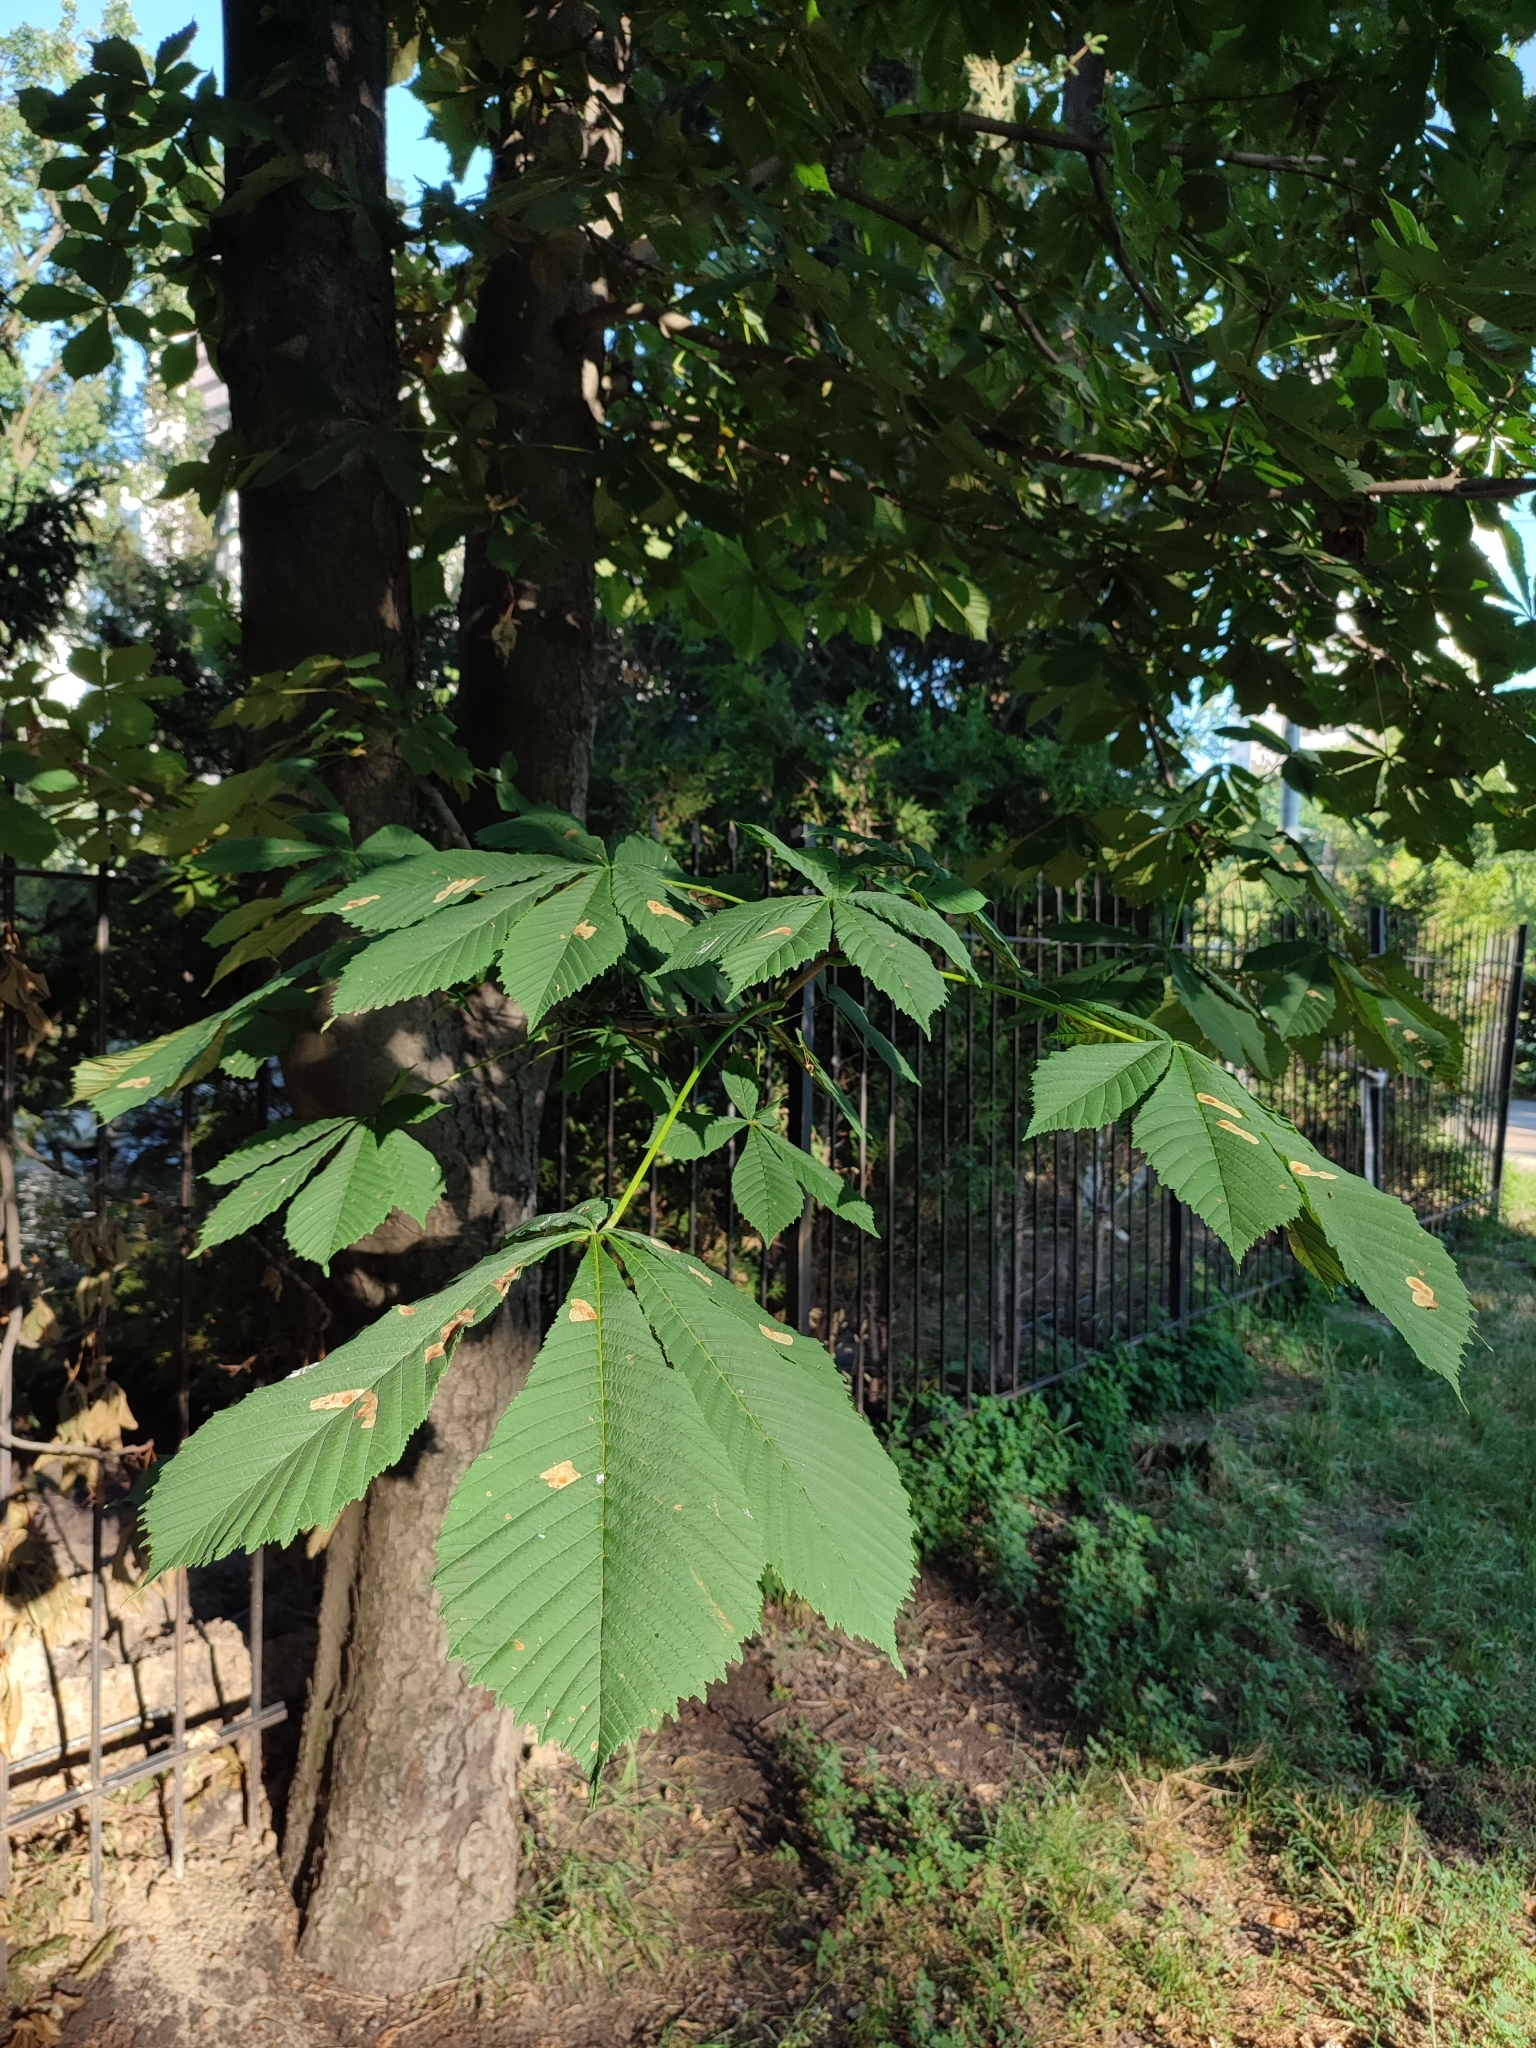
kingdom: Animalia
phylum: Arthropoda
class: Insecta
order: Lepidoptera
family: Gracillariidae
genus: Cameraria
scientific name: Cameraria ohridella
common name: Horse-chestnut leaf-miner
